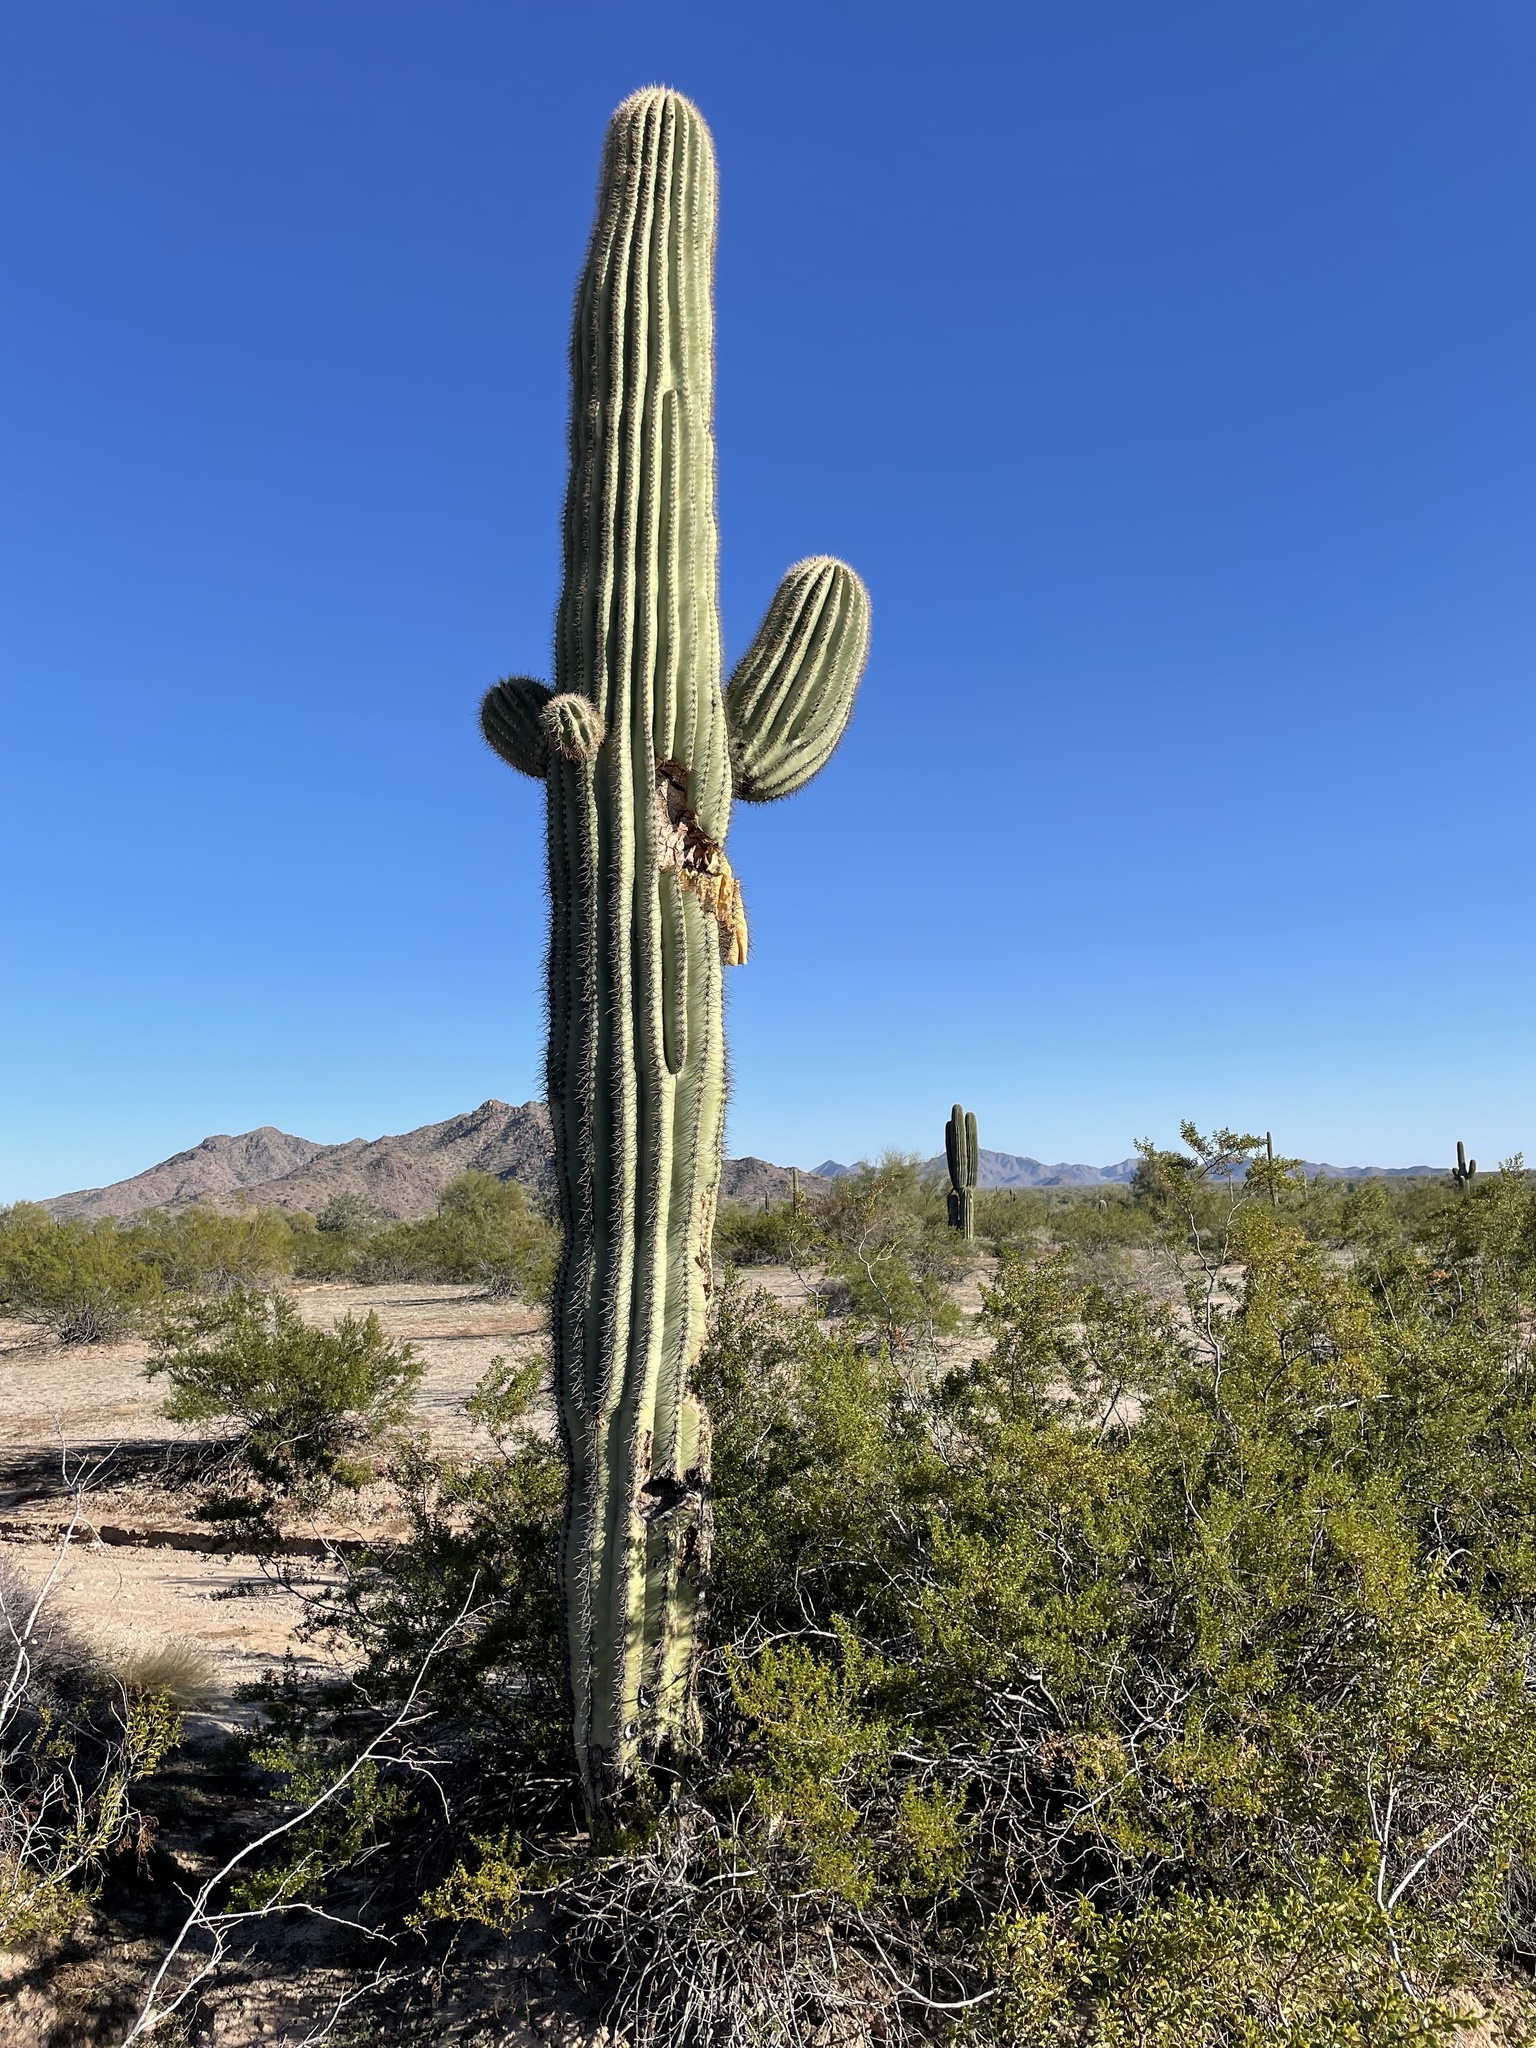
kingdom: Plantae
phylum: Tracheophyta
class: Magnoliopsida
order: Caryophyllales
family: Cactaceae
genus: Carnegiea
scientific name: Carnegiea gigantea
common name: Saguaro
